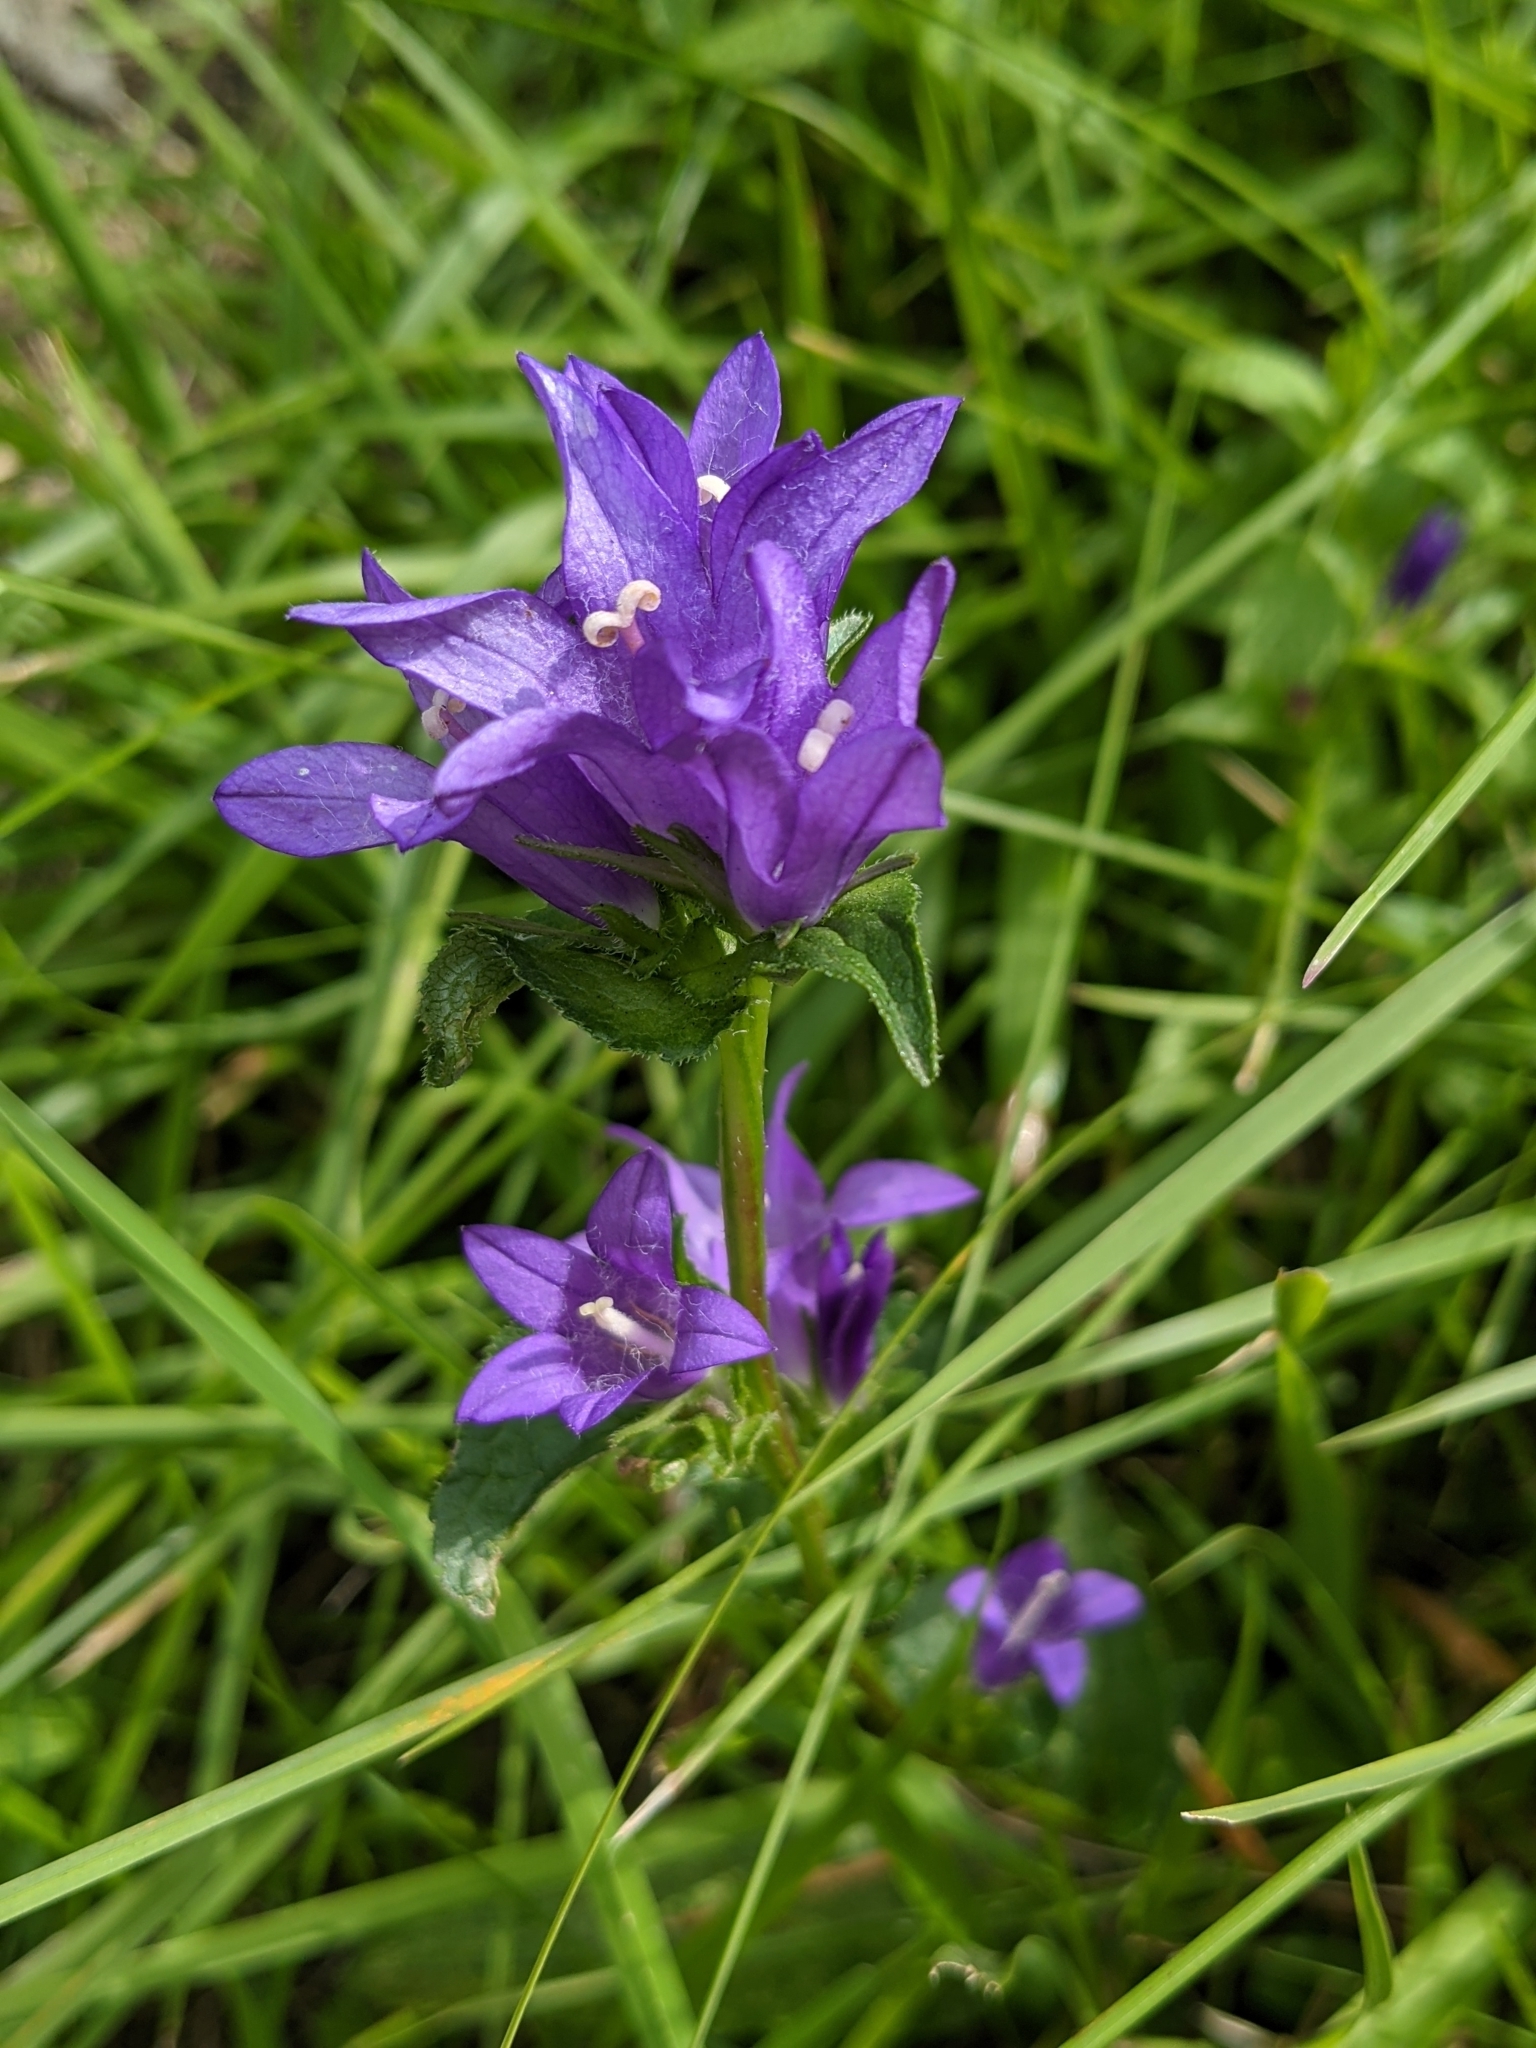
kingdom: Plantae
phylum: Tracheophyta
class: Magnoliopsida
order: Asterales
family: Campanulaceae
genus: Campanula
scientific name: Campanula glomerata
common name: Clustered bellflower
